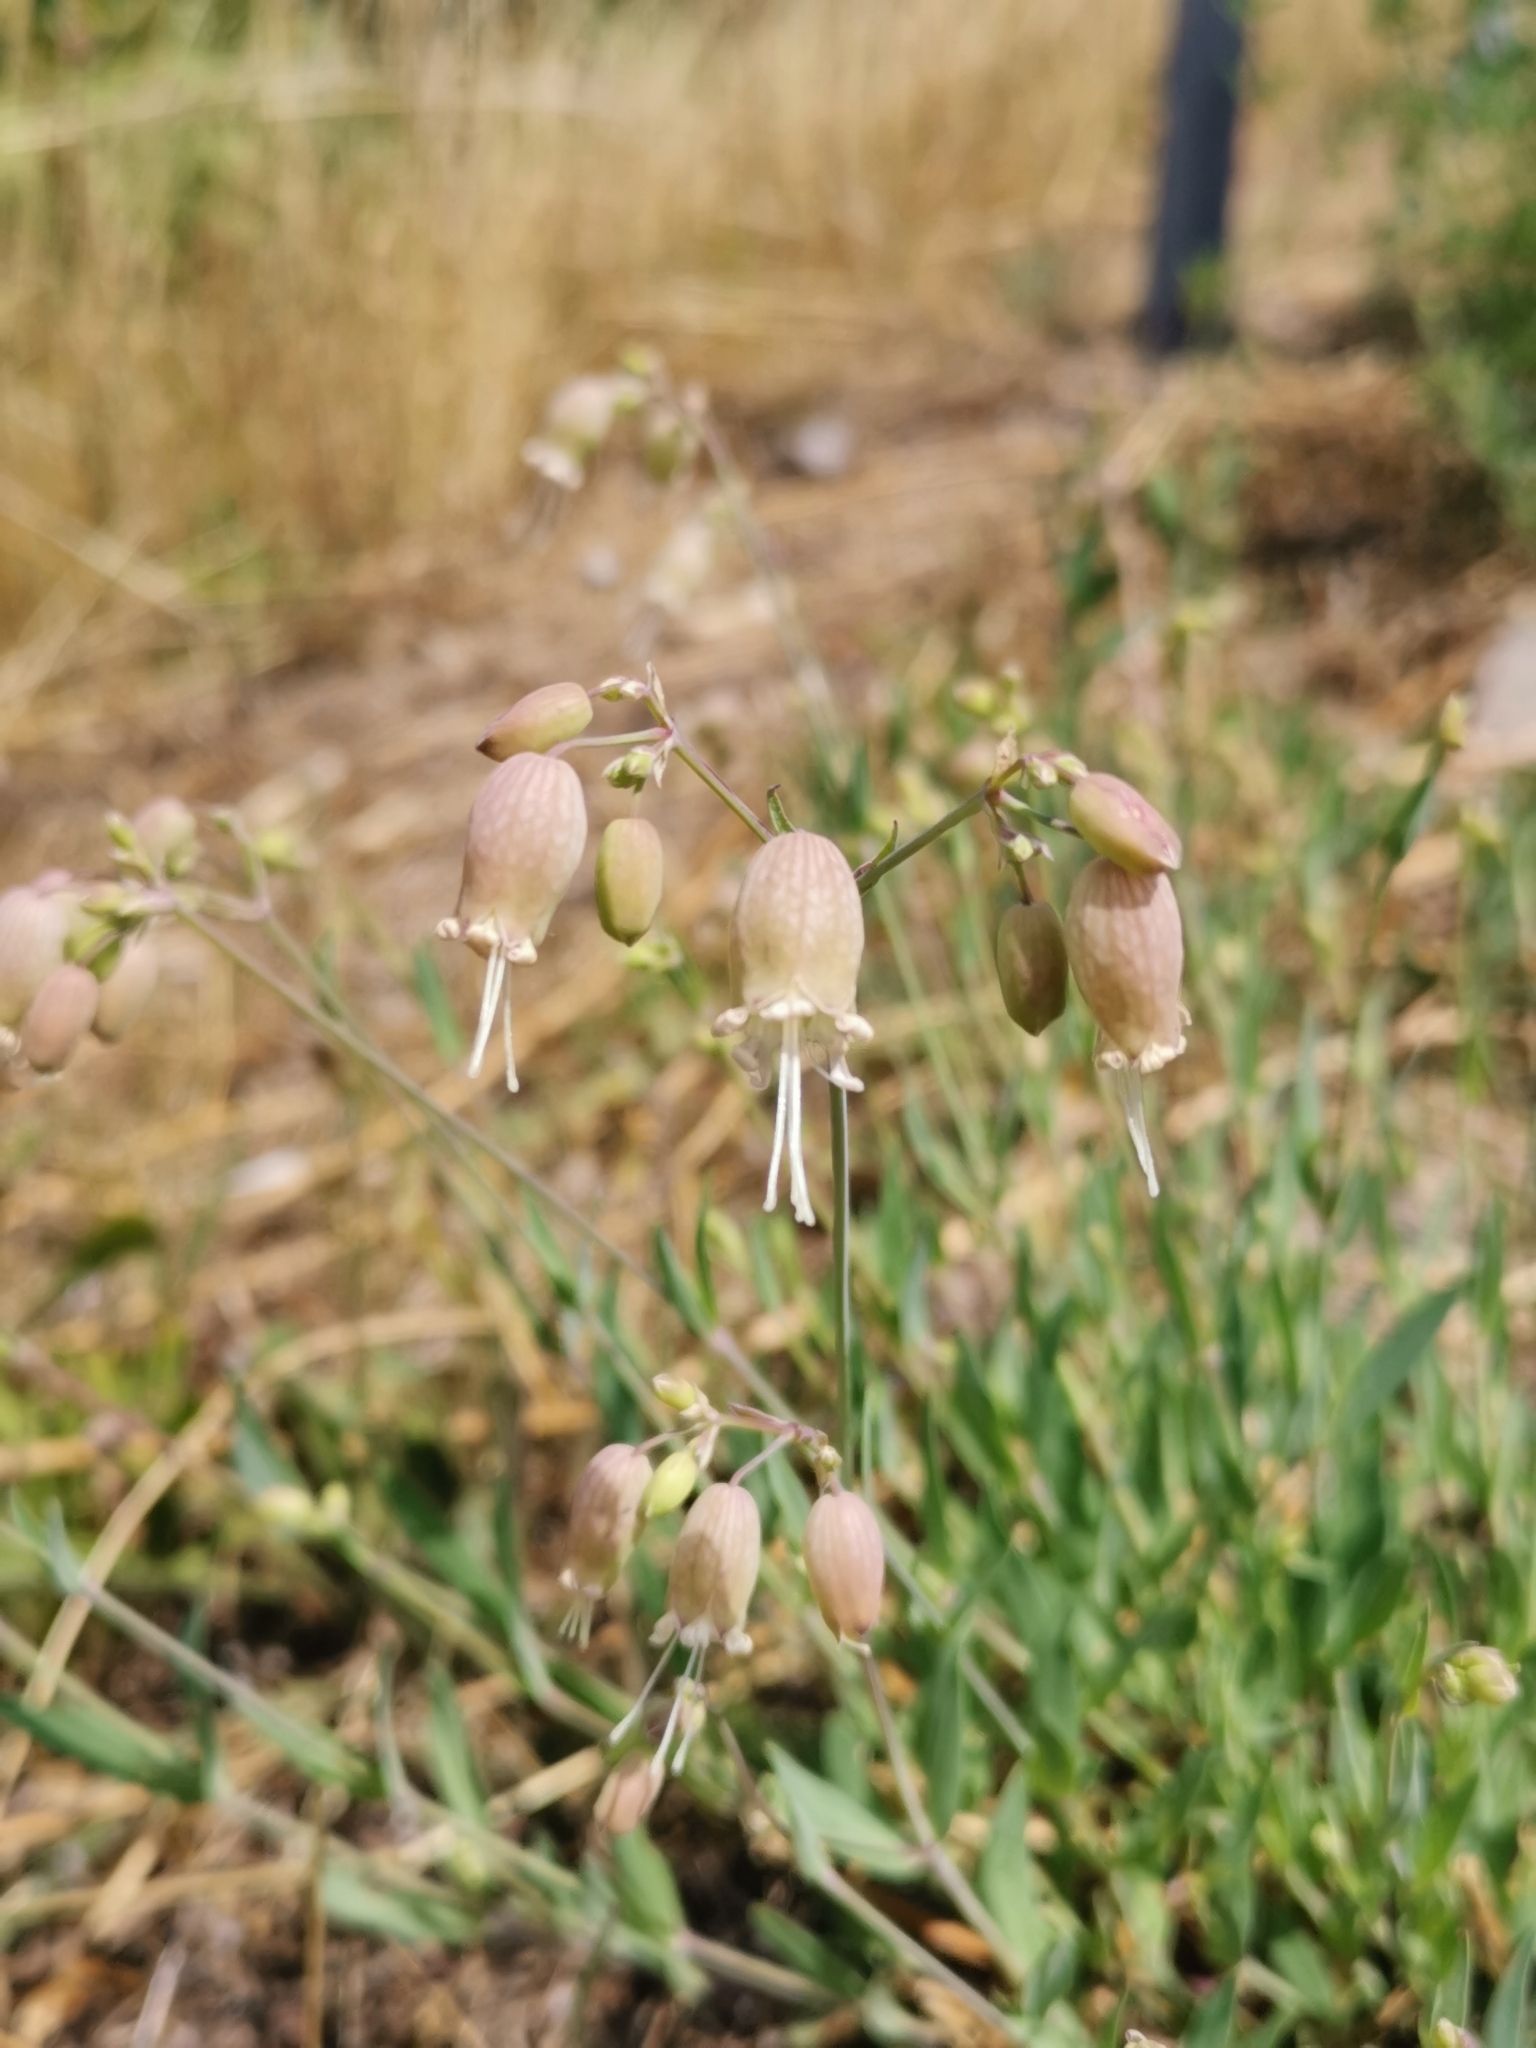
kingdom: Plantae
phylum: Tracheophyta
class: Magnoliopsida
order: Caryophyllales
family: Caryophyllaceae
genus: Silene
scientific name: Silene vulgaris
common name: Bladder campion
